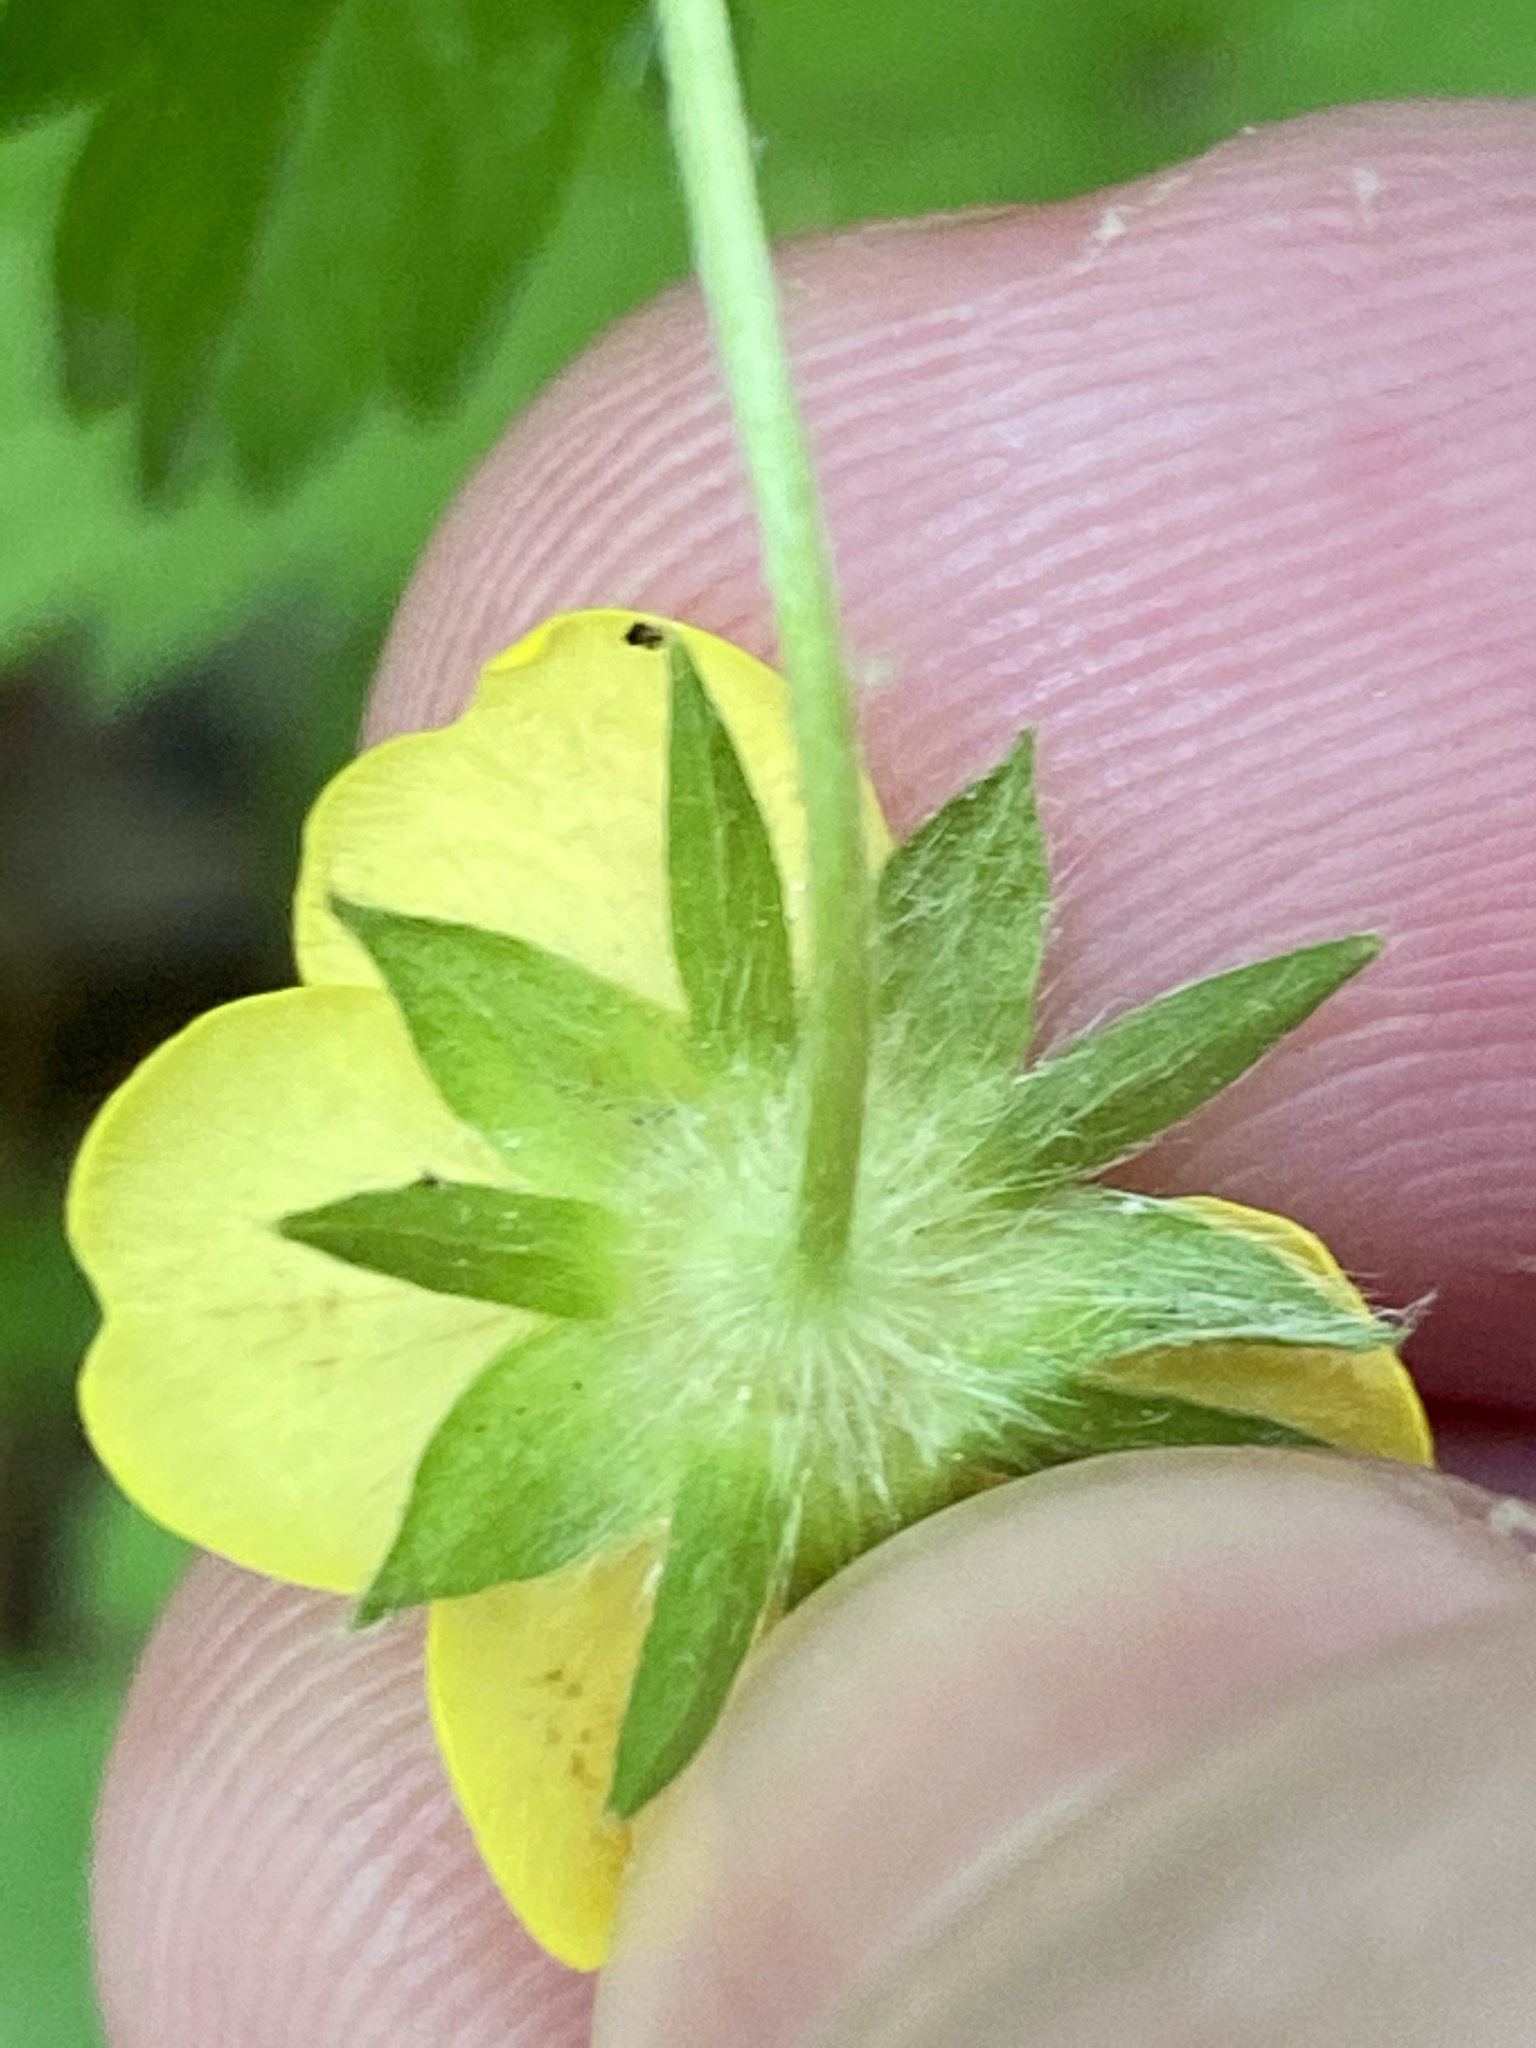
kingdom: Plantae
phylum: Tracheophyta
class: Magnoliopsida
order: Rosales
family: Rosaceae
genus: Potentilla
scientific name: Potentilla simplex
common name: Old field cinquefoil
